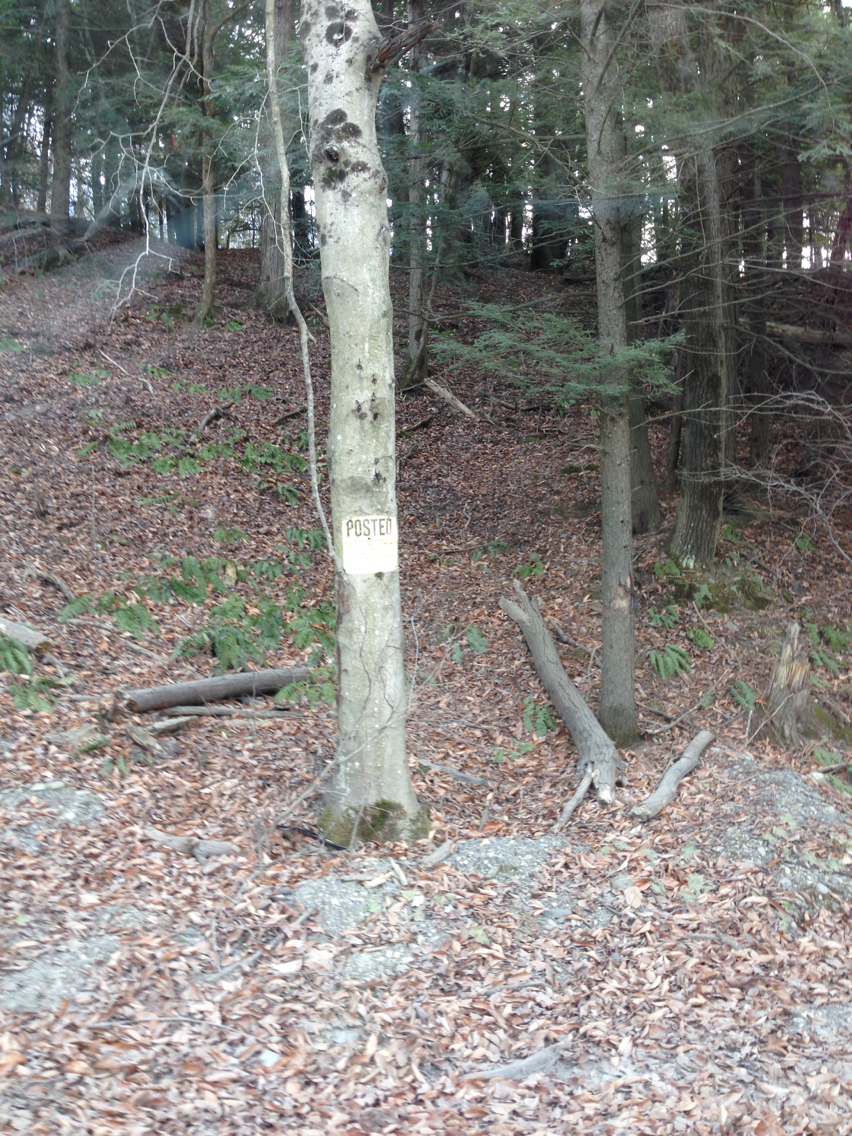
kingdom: Plantae
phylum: Tracheophyta
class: Magnoliopsida
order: Fagales
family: Fagaceae
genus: Fagus
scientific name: Fagus grandifolia
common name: American beech
